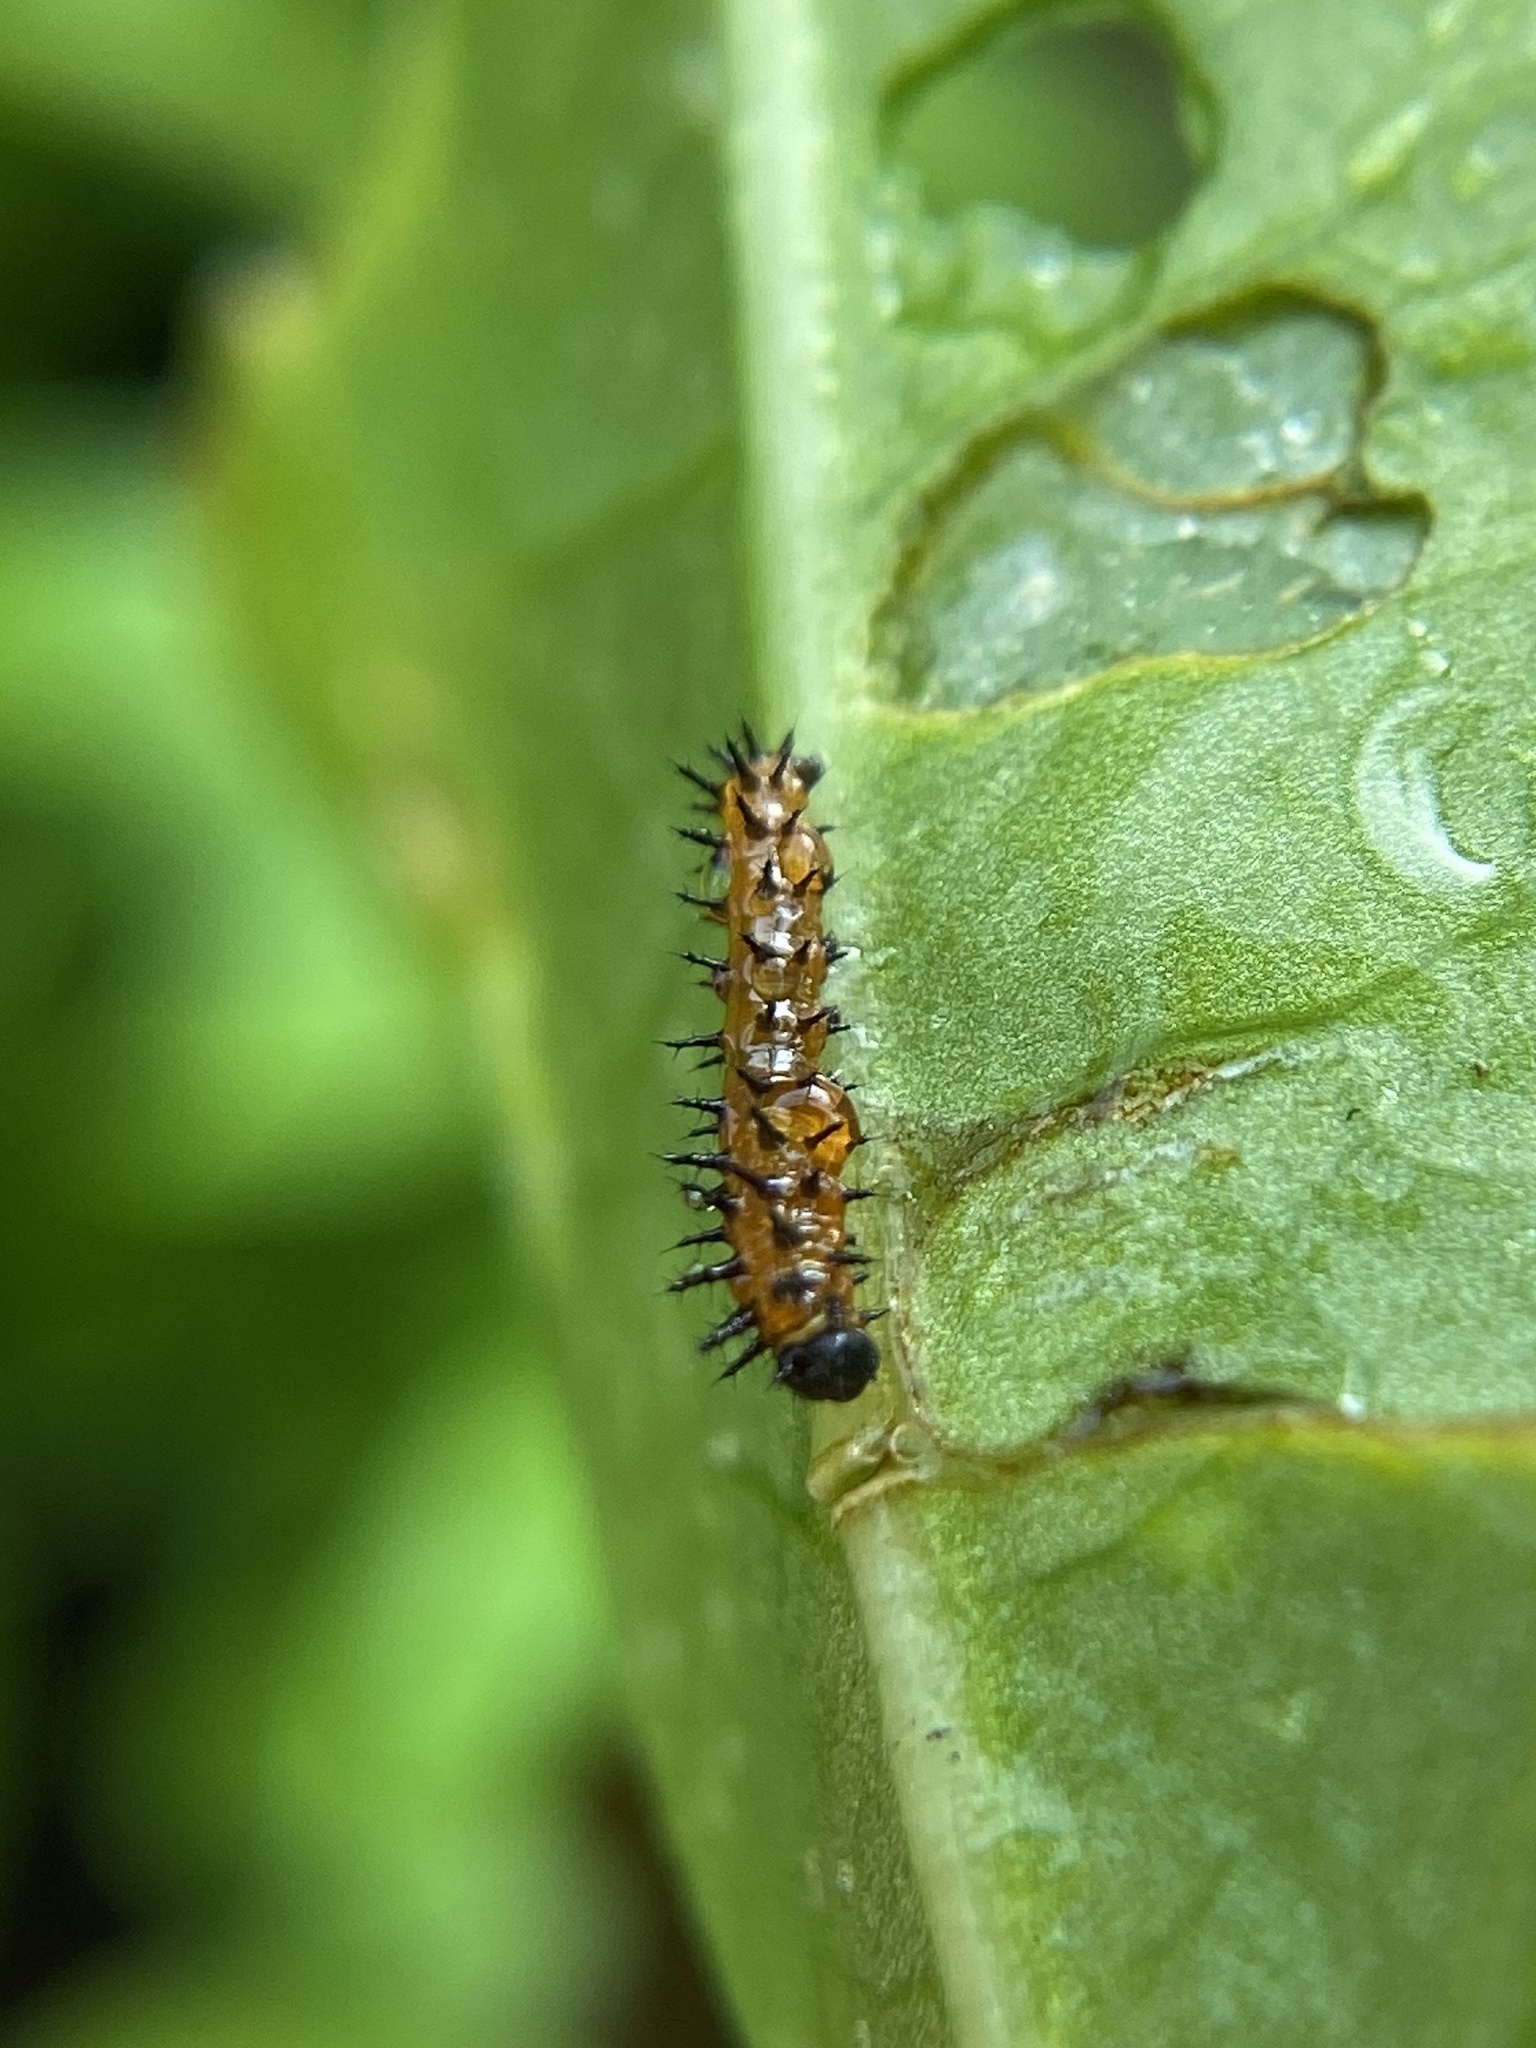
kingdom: Animalia
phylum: Arthropoda
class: Insecta
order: Lepidoptera
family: Nymphalidae
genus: Dione
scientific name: Dione vanillae
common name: Gulf fritillary
